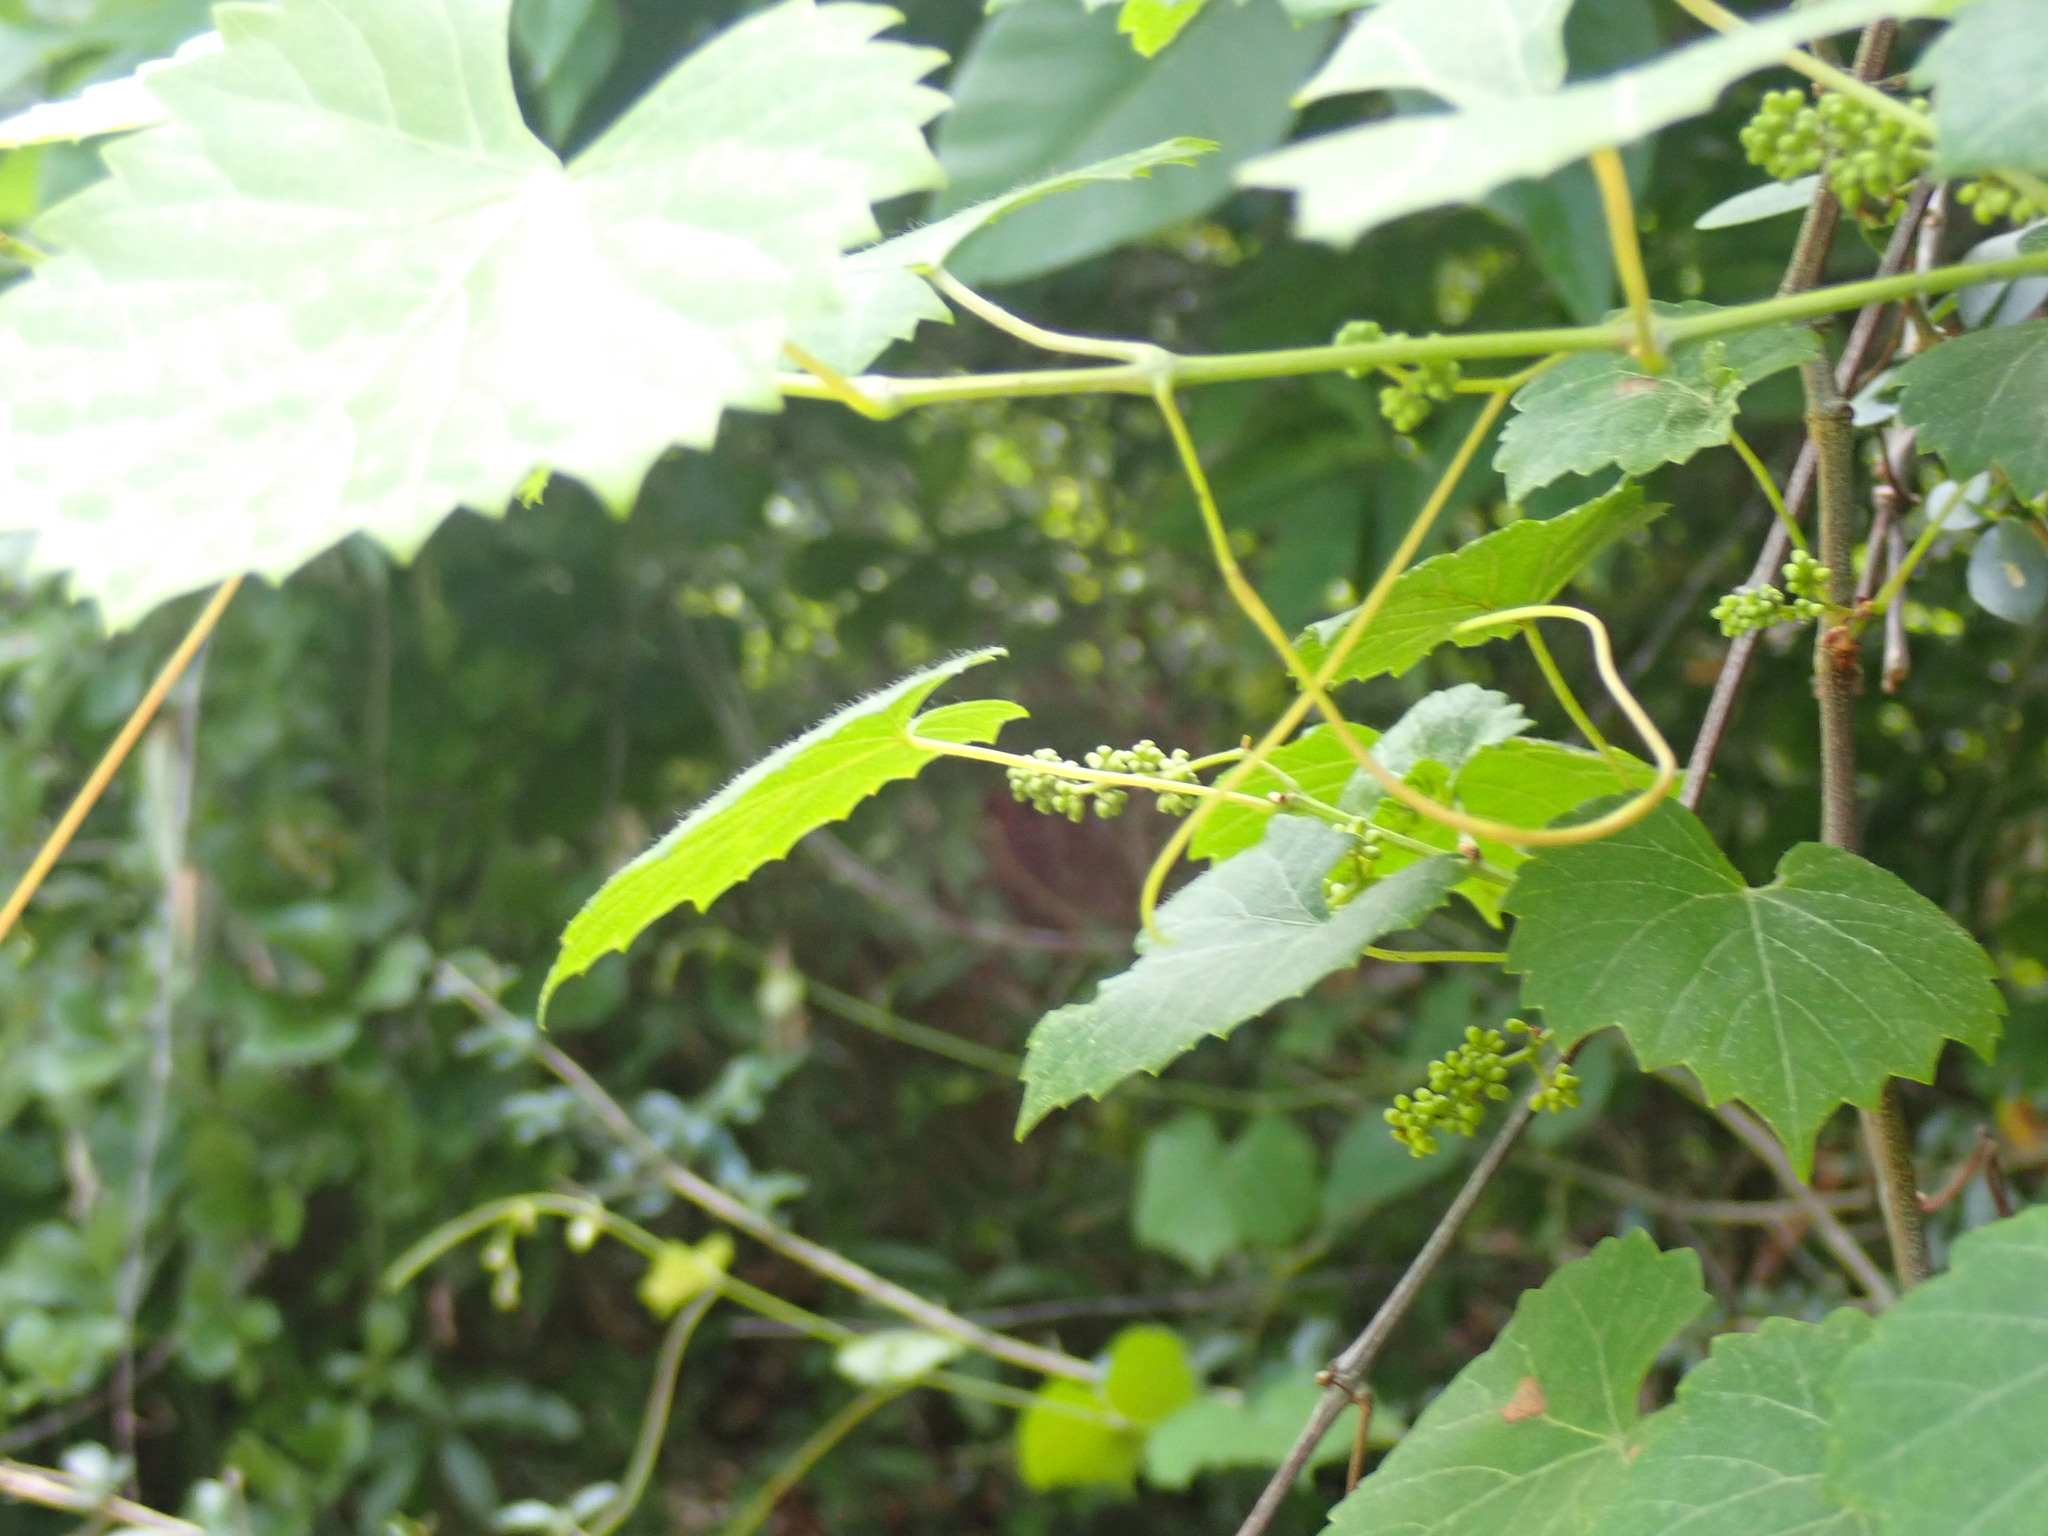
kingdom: Plantae
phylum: Tracheophyta
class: Magnoliopsida
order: Vitales
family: Vitaceae
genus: Vitis
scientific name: Vitis rotundifolia
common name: Muscadine grape
